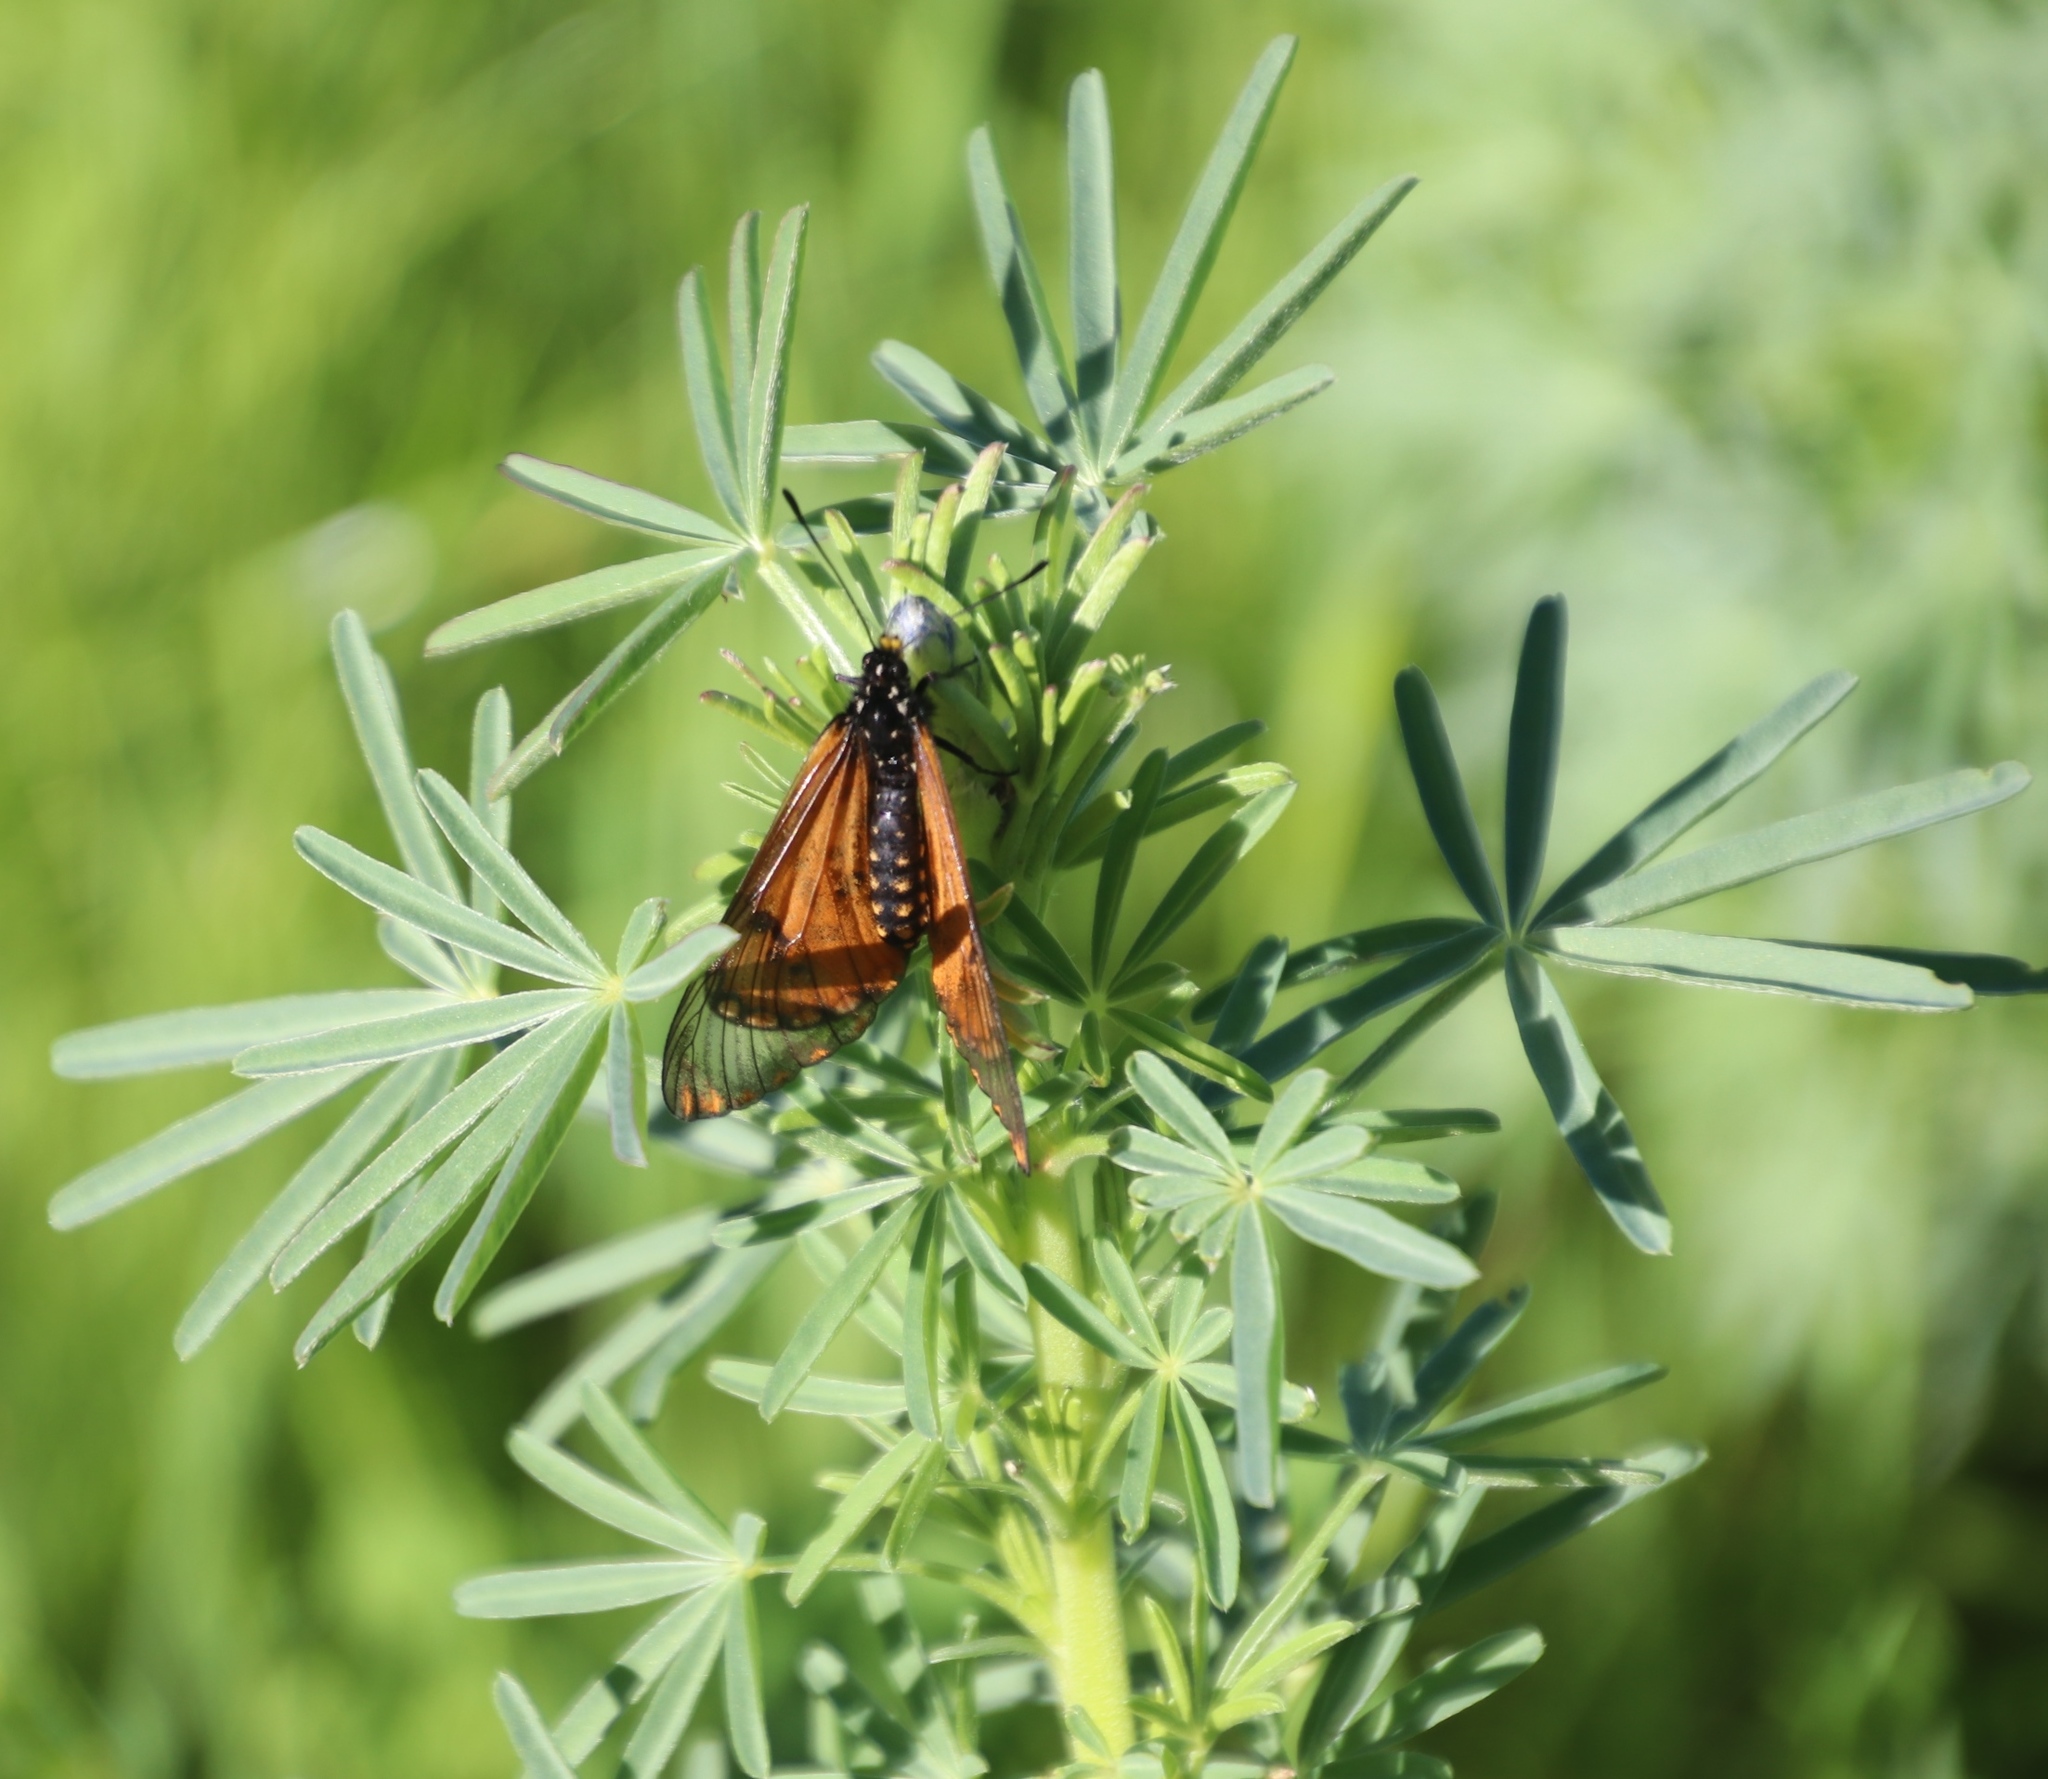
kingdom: Animalia
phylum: Arthropoda
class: Insecta
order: Lepidoptera
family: Nymphalidae
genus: Acraea
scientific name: Acraea horta
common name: Garden acraea
